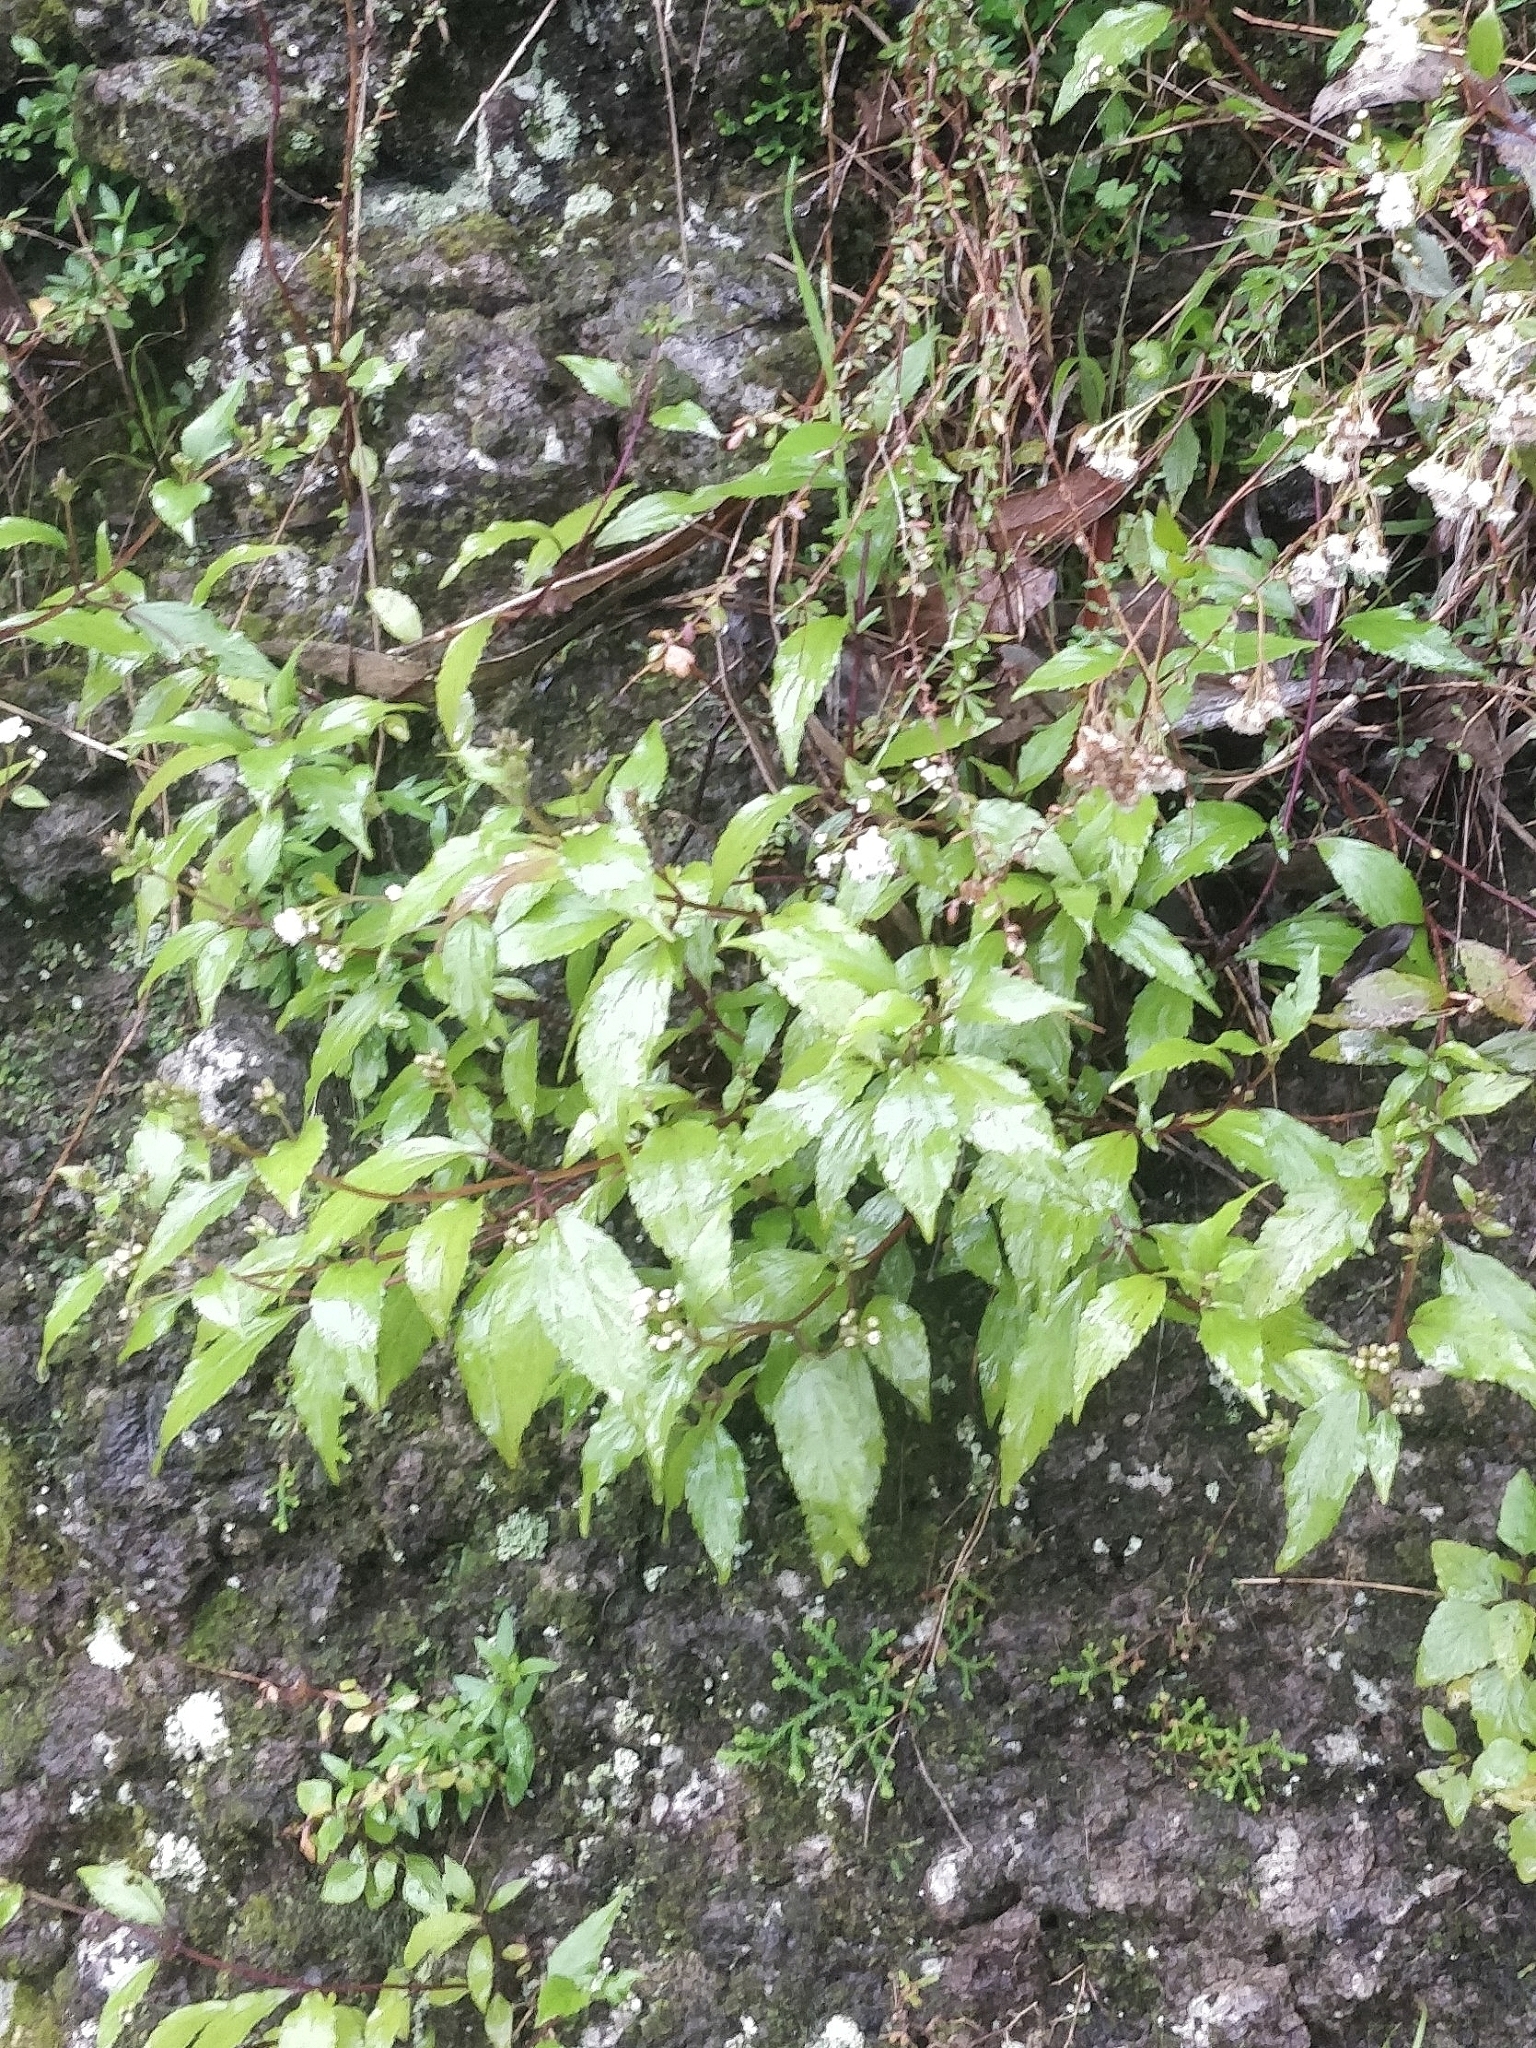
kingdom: Plantae
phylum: Tracheophyta
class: Magnoliopsida
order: Asterales
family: Asteraceae
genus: Ageratina
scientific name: Ageratina riparia
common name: Creeping croftonweed
